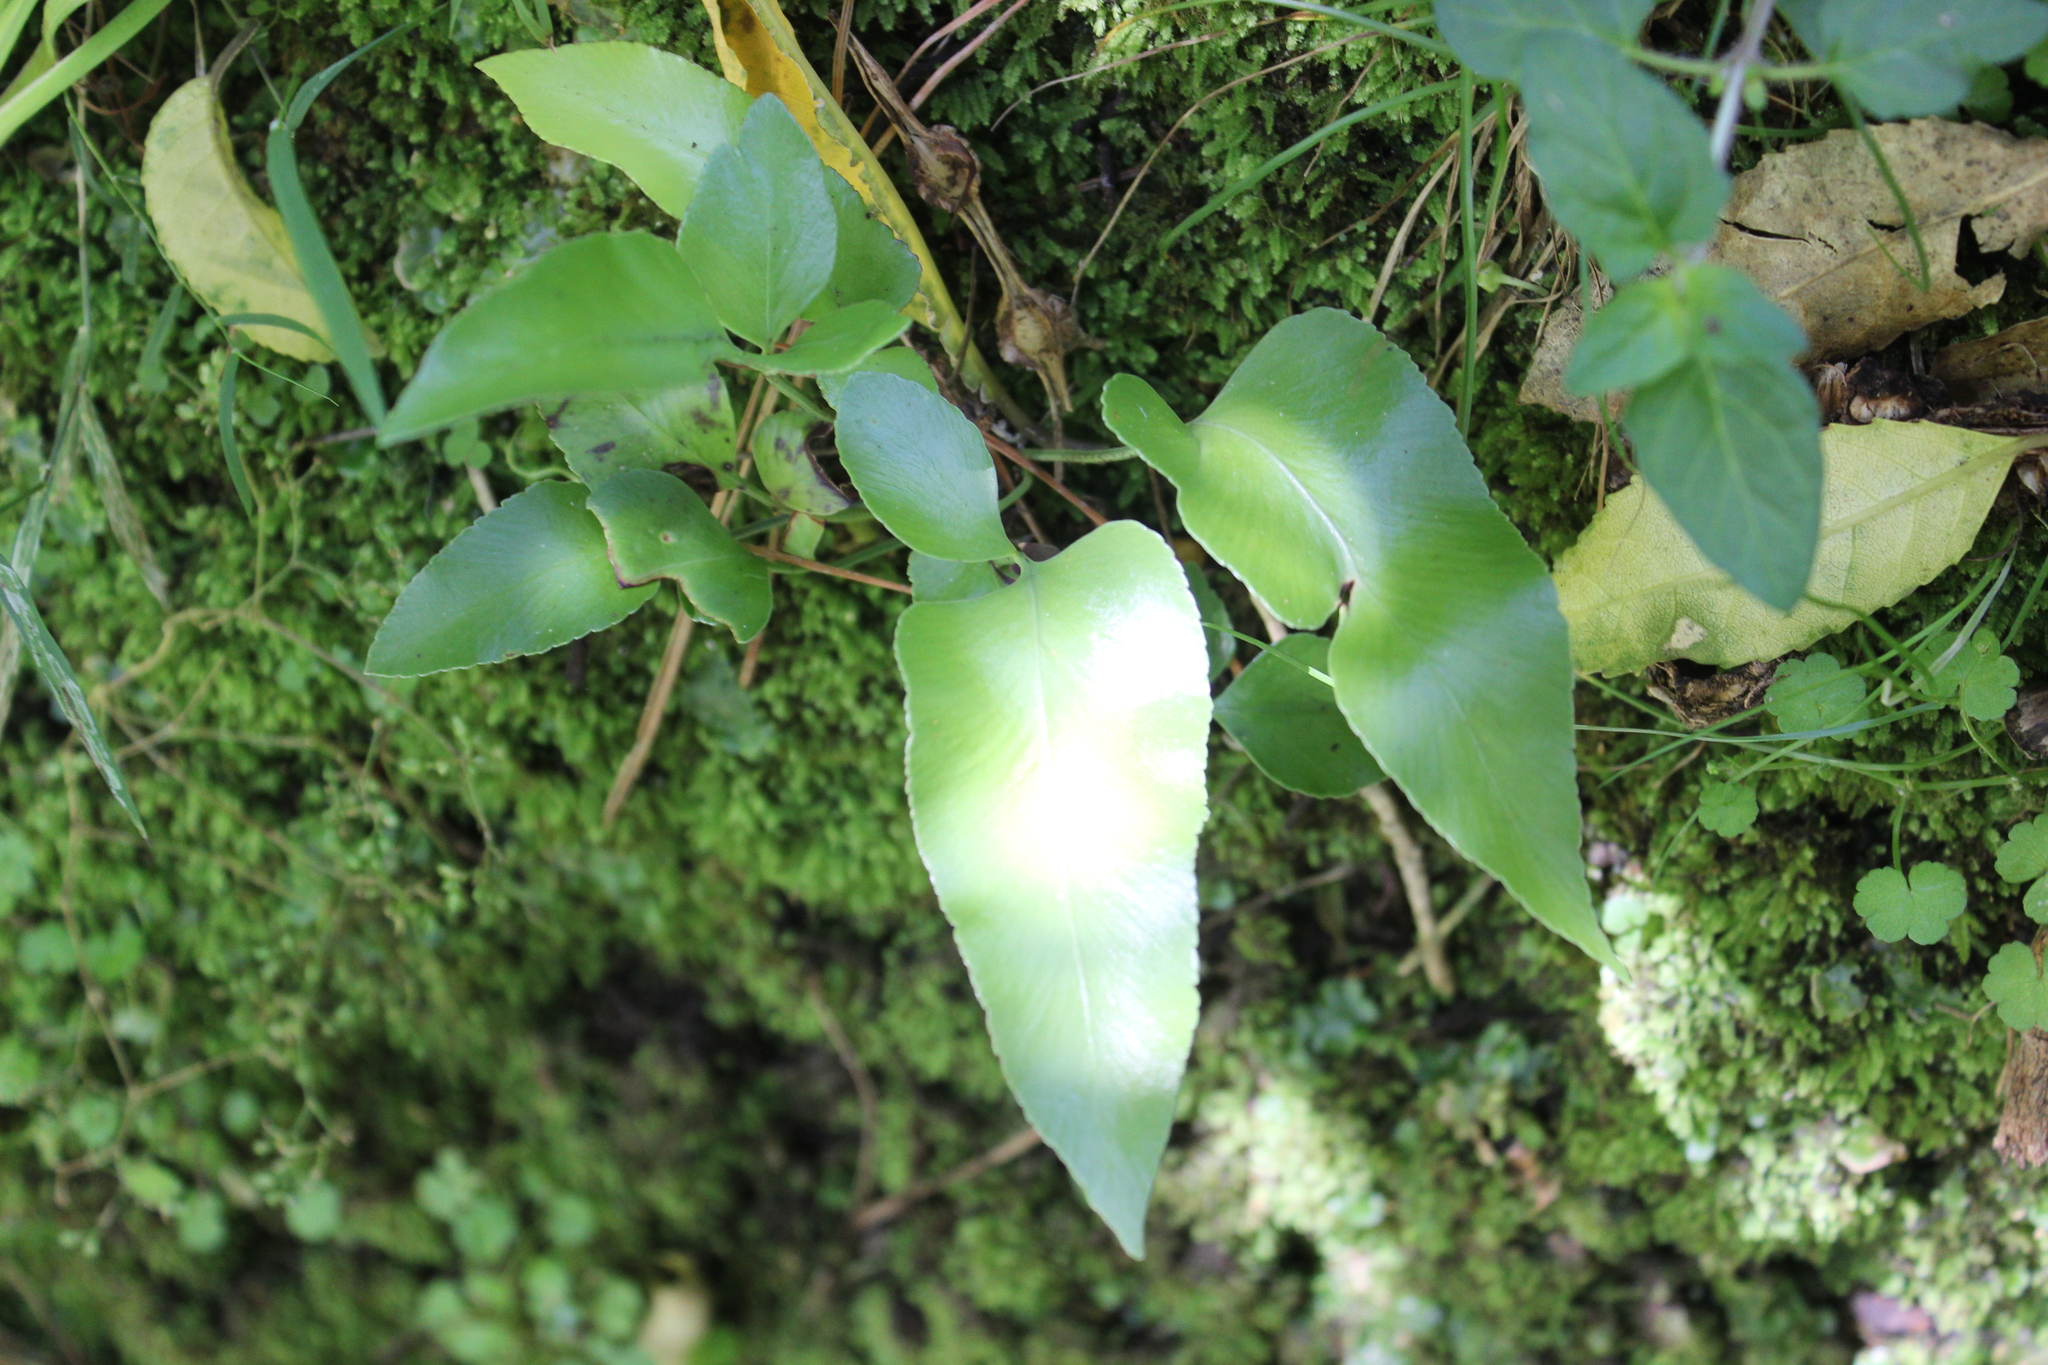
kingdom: Plantae
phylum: Tracheophyta
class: Polypodiopsida
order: Polypodiales
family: Aspleniaceae
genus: Asplenium
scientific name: Asplenium oblongifolium
